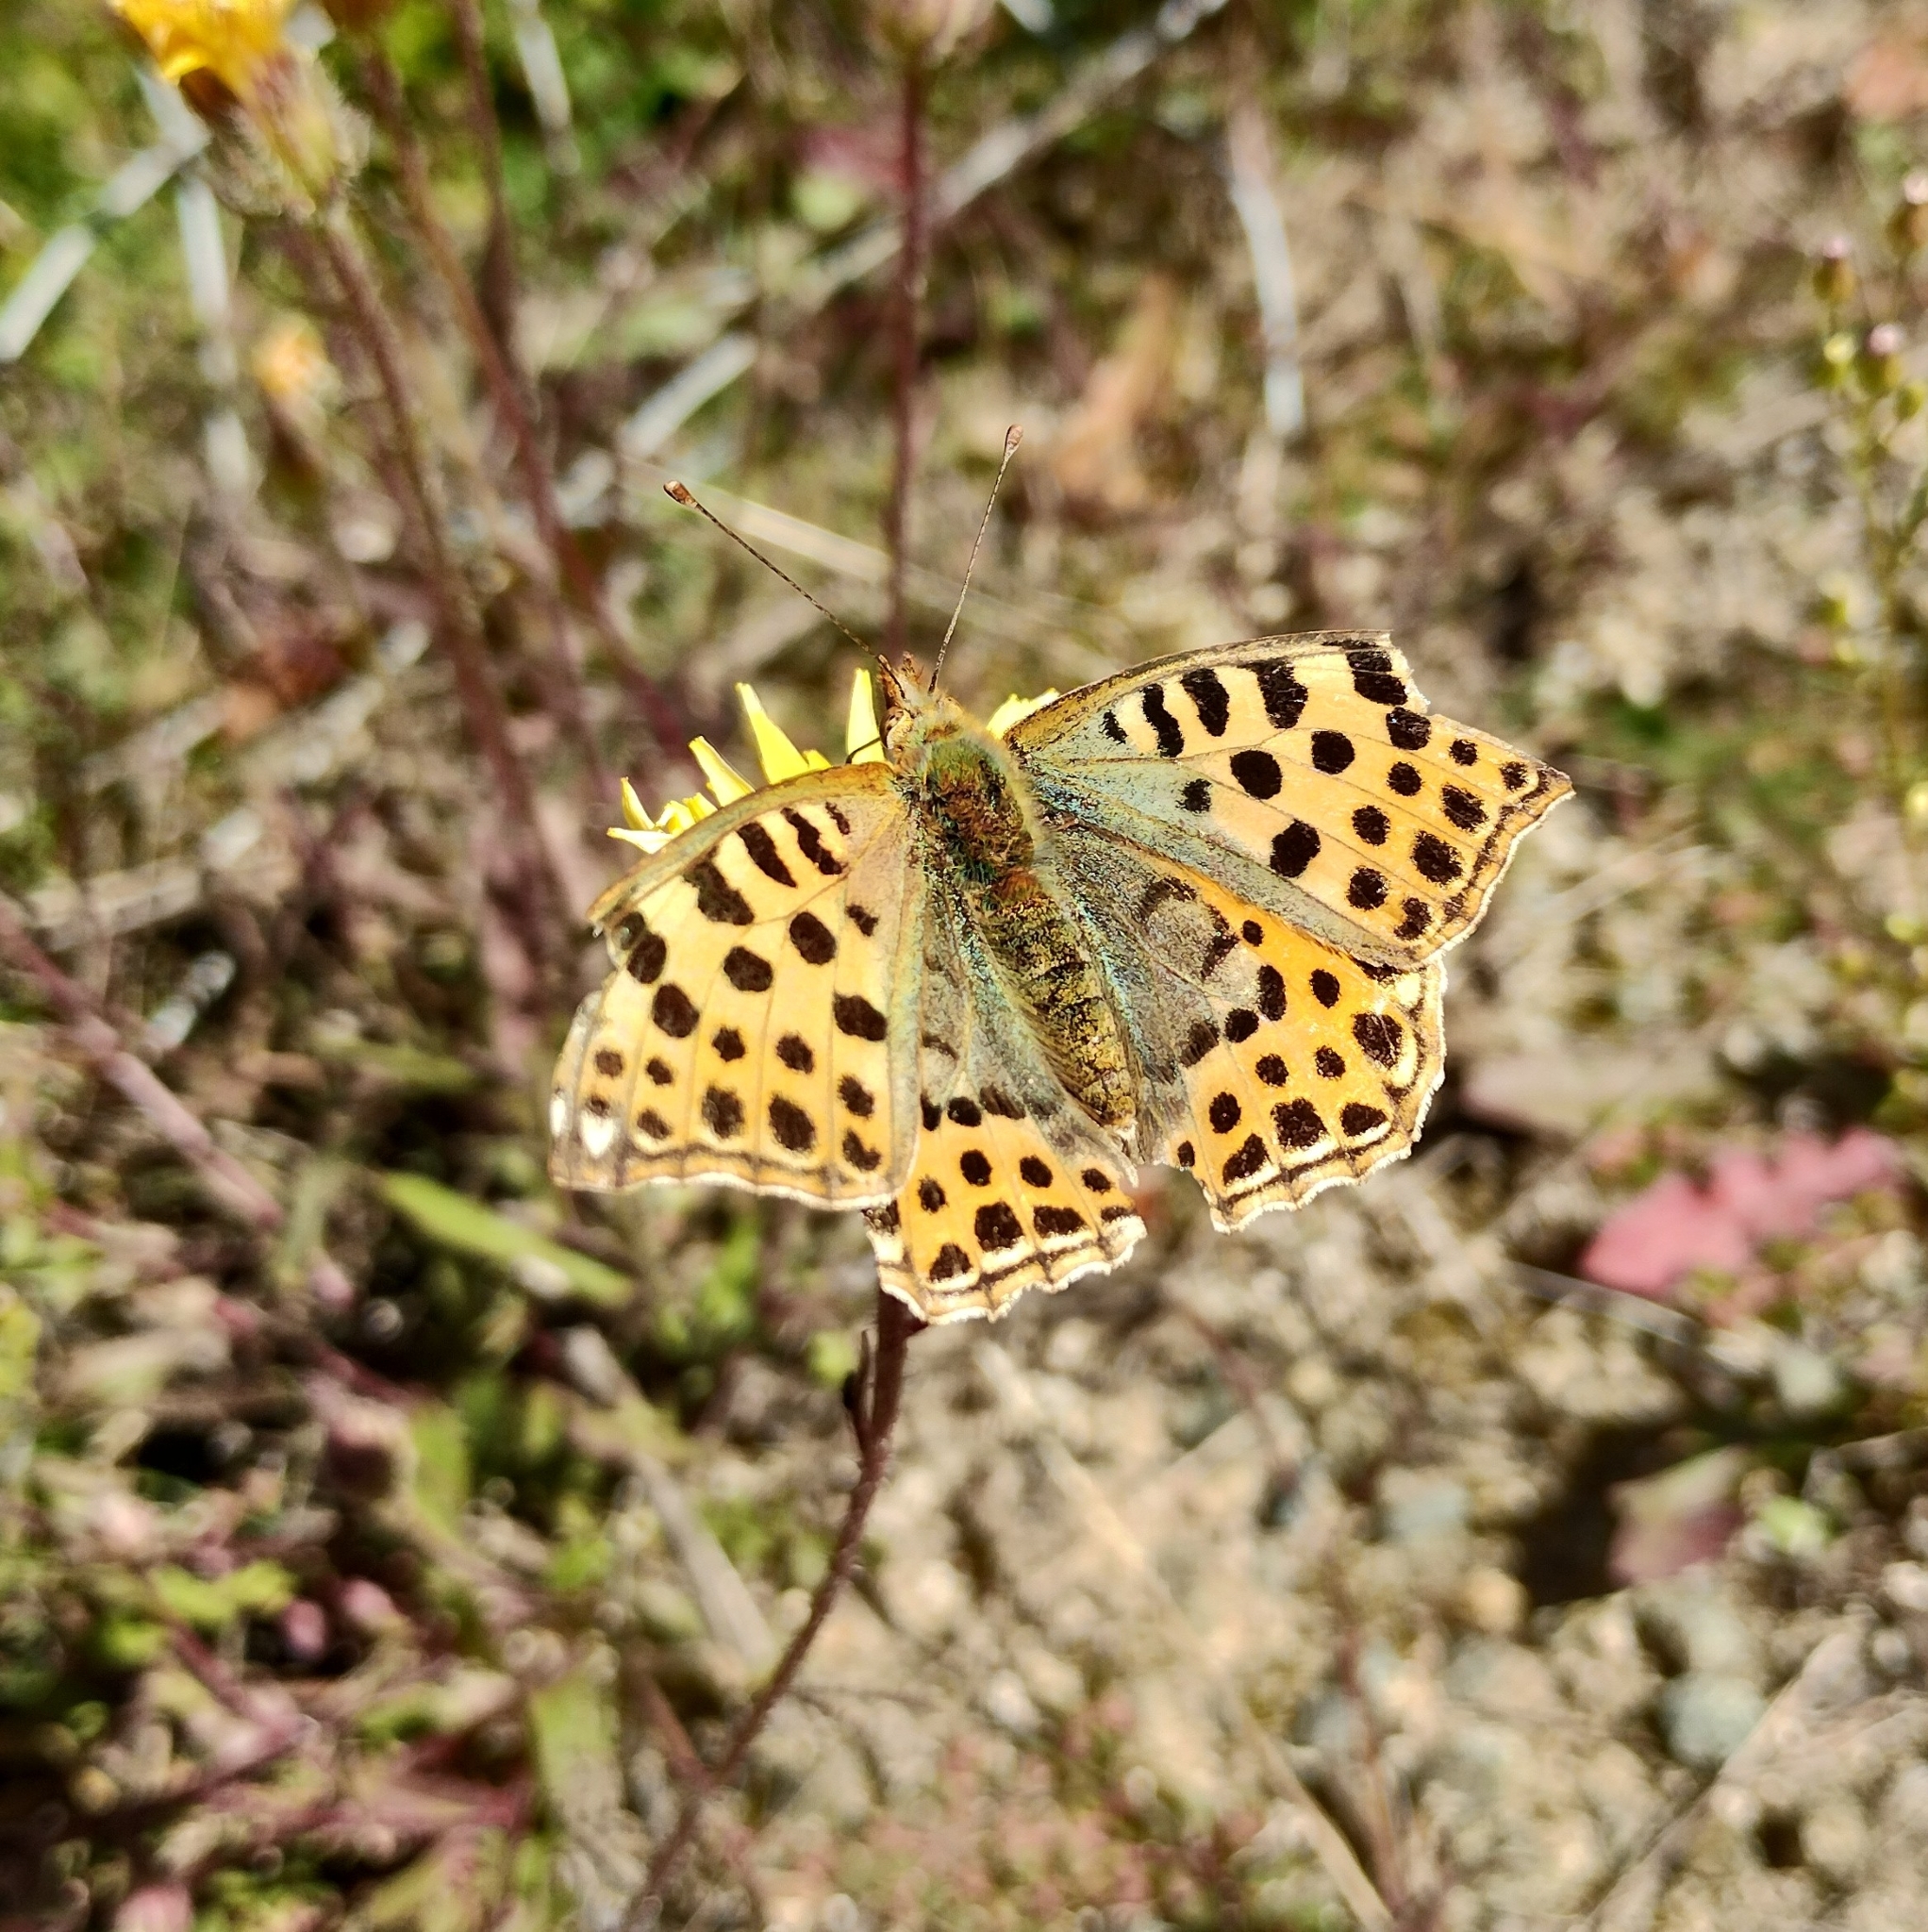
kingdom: Animalia
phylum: Arthropoda
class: Insecta
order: Lepidoptera
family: Nymphalidae
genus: Issoria
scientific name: Issoria lathonia
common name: Queen of spain fritillary
